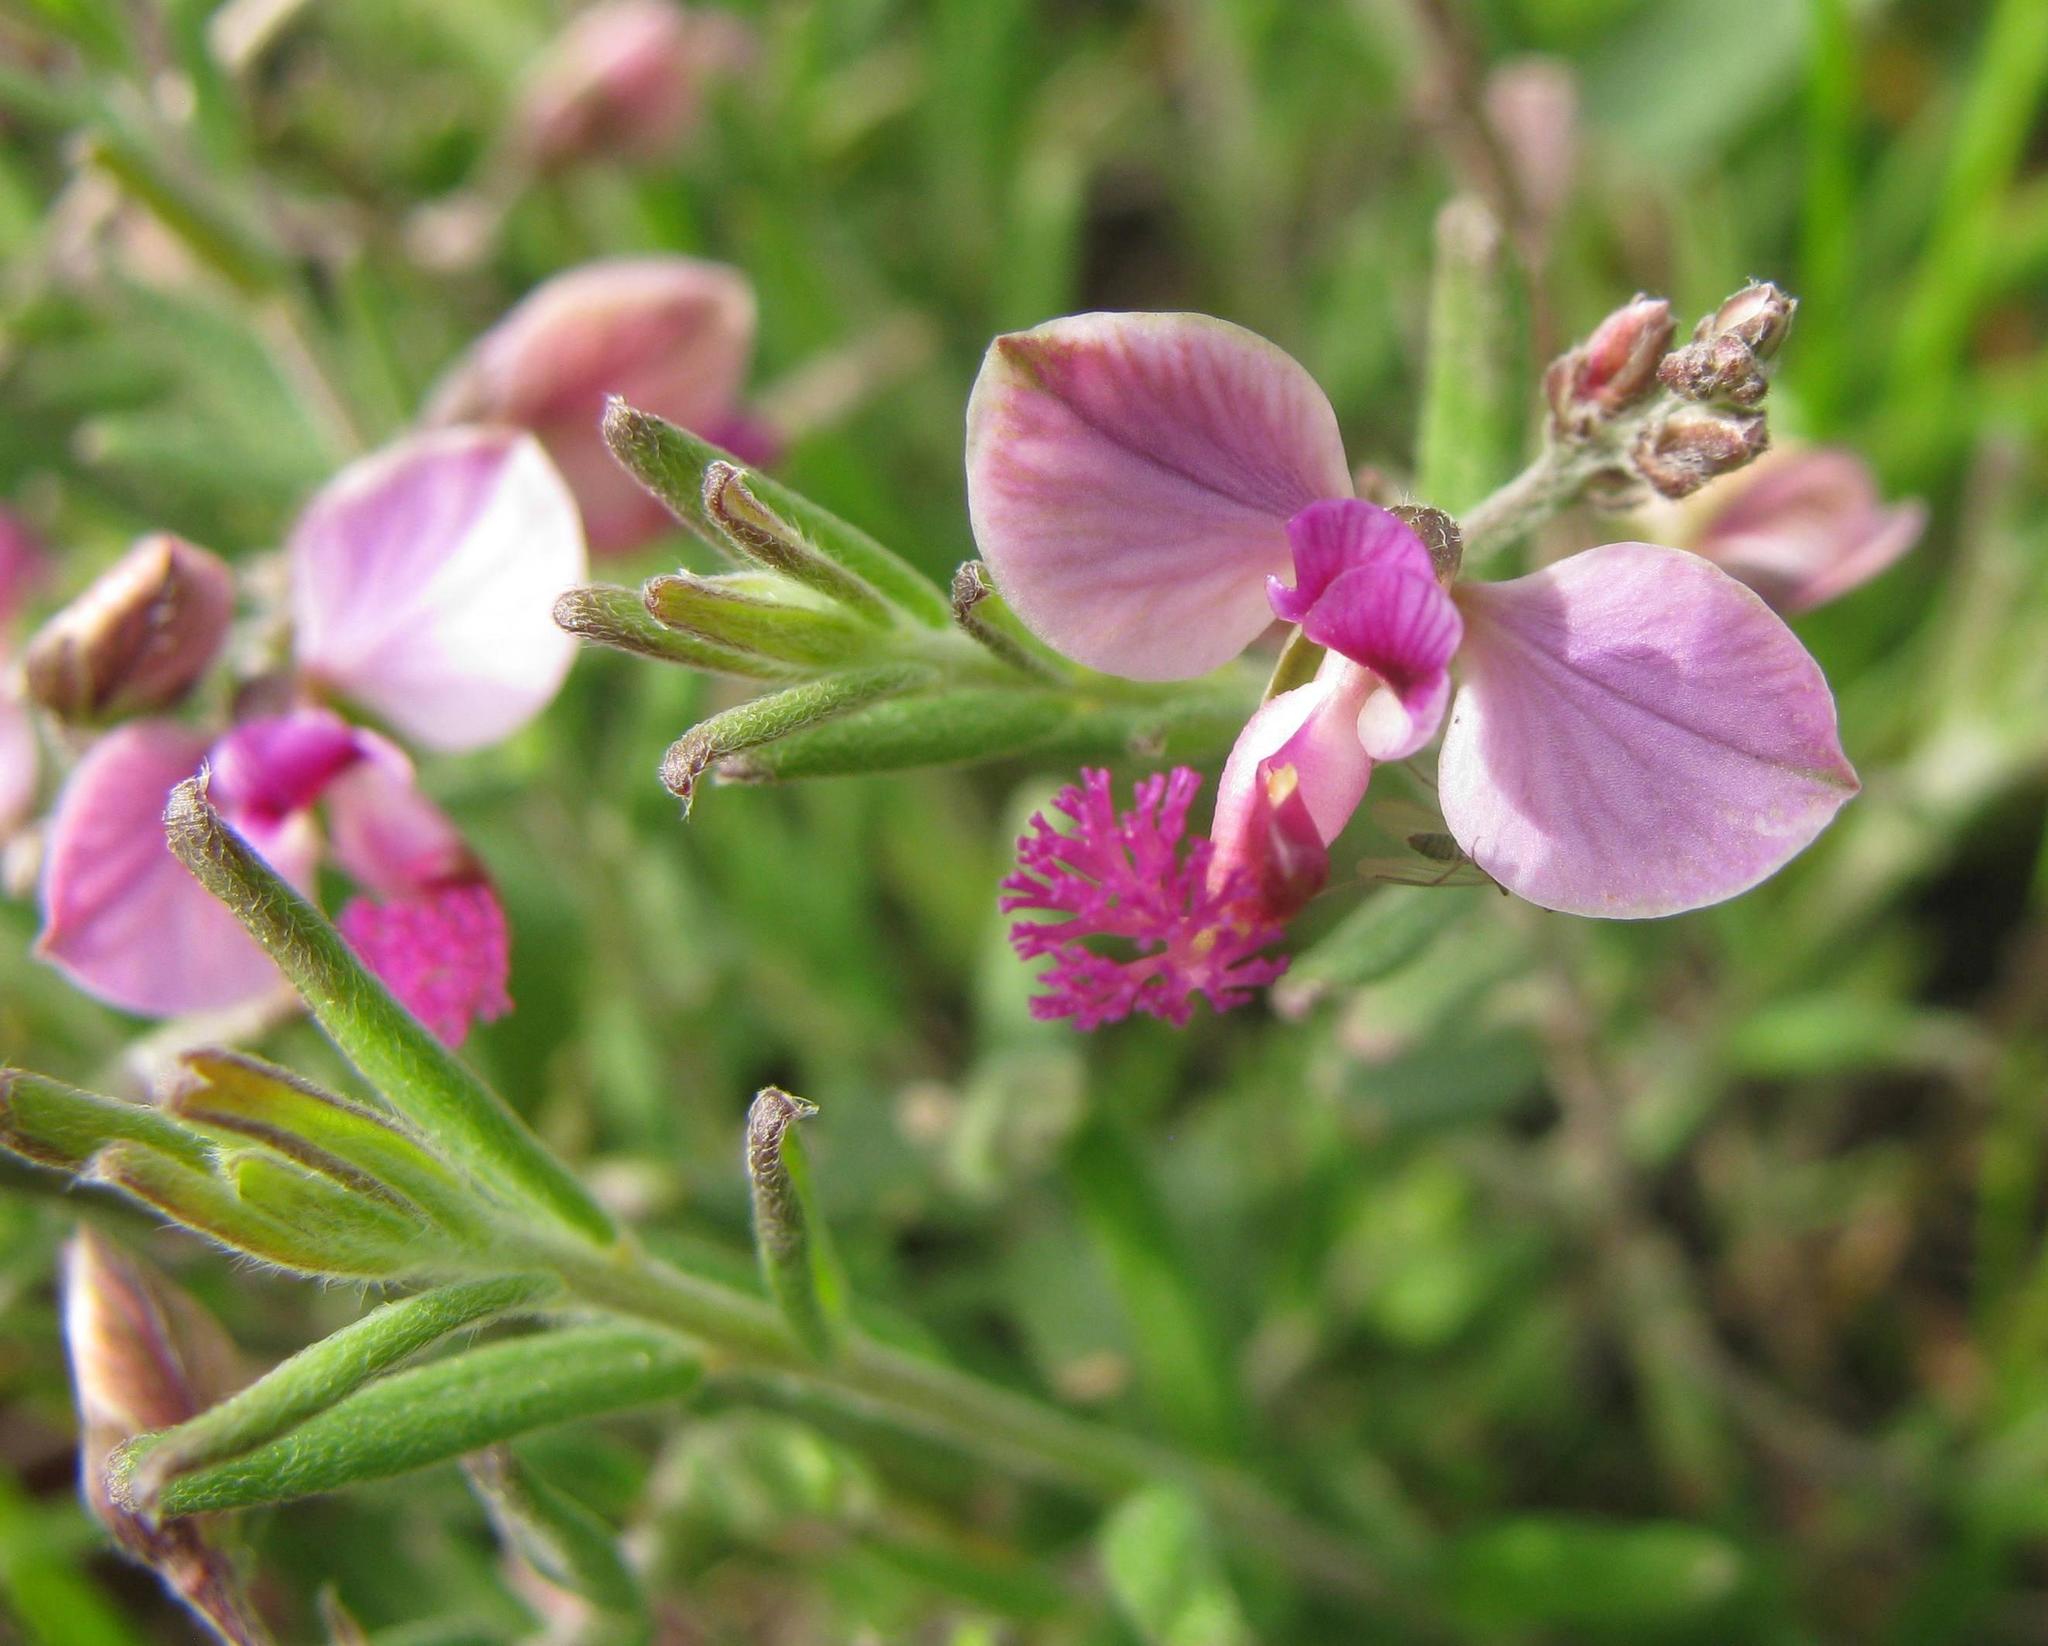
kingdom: Plantae
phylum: Tracheophyta
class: Magnoliopsida
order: Fabales
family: Polygalaceae
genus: Polygala
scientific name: Polygala scabra
